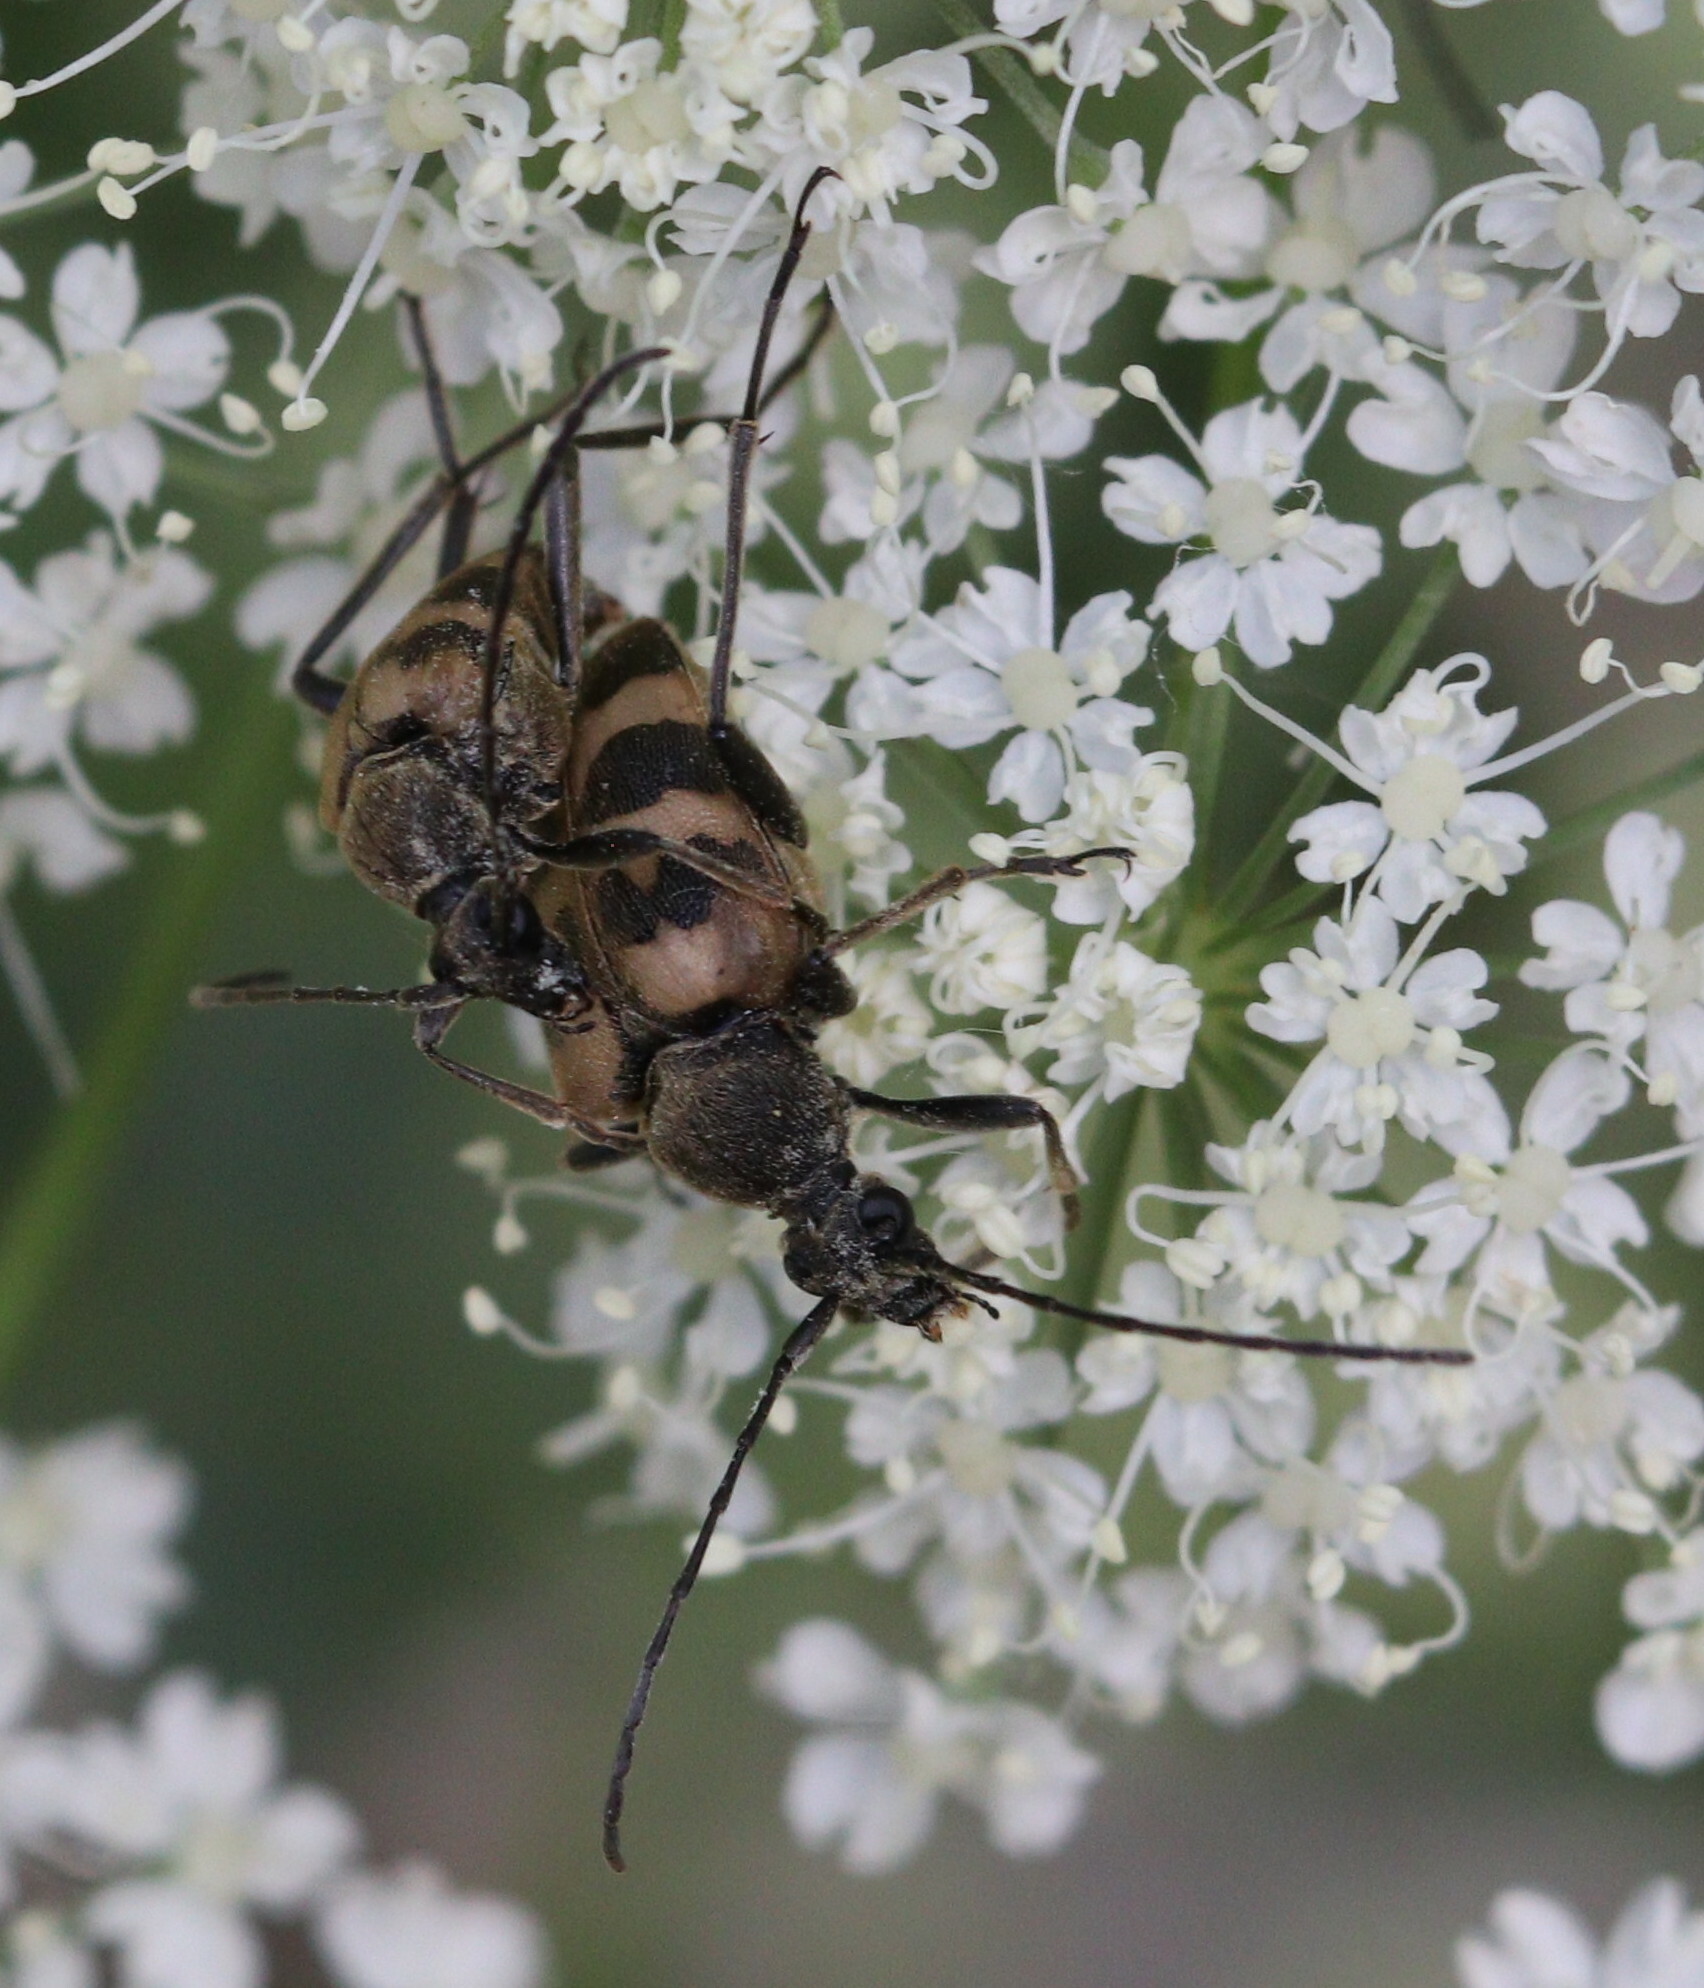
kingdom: Animalia
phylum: Arthropoda
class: Insecta
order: Coleoptera
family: Cerambycidae
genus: Pachytodes
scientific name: Pachytodes cerambyciformis
